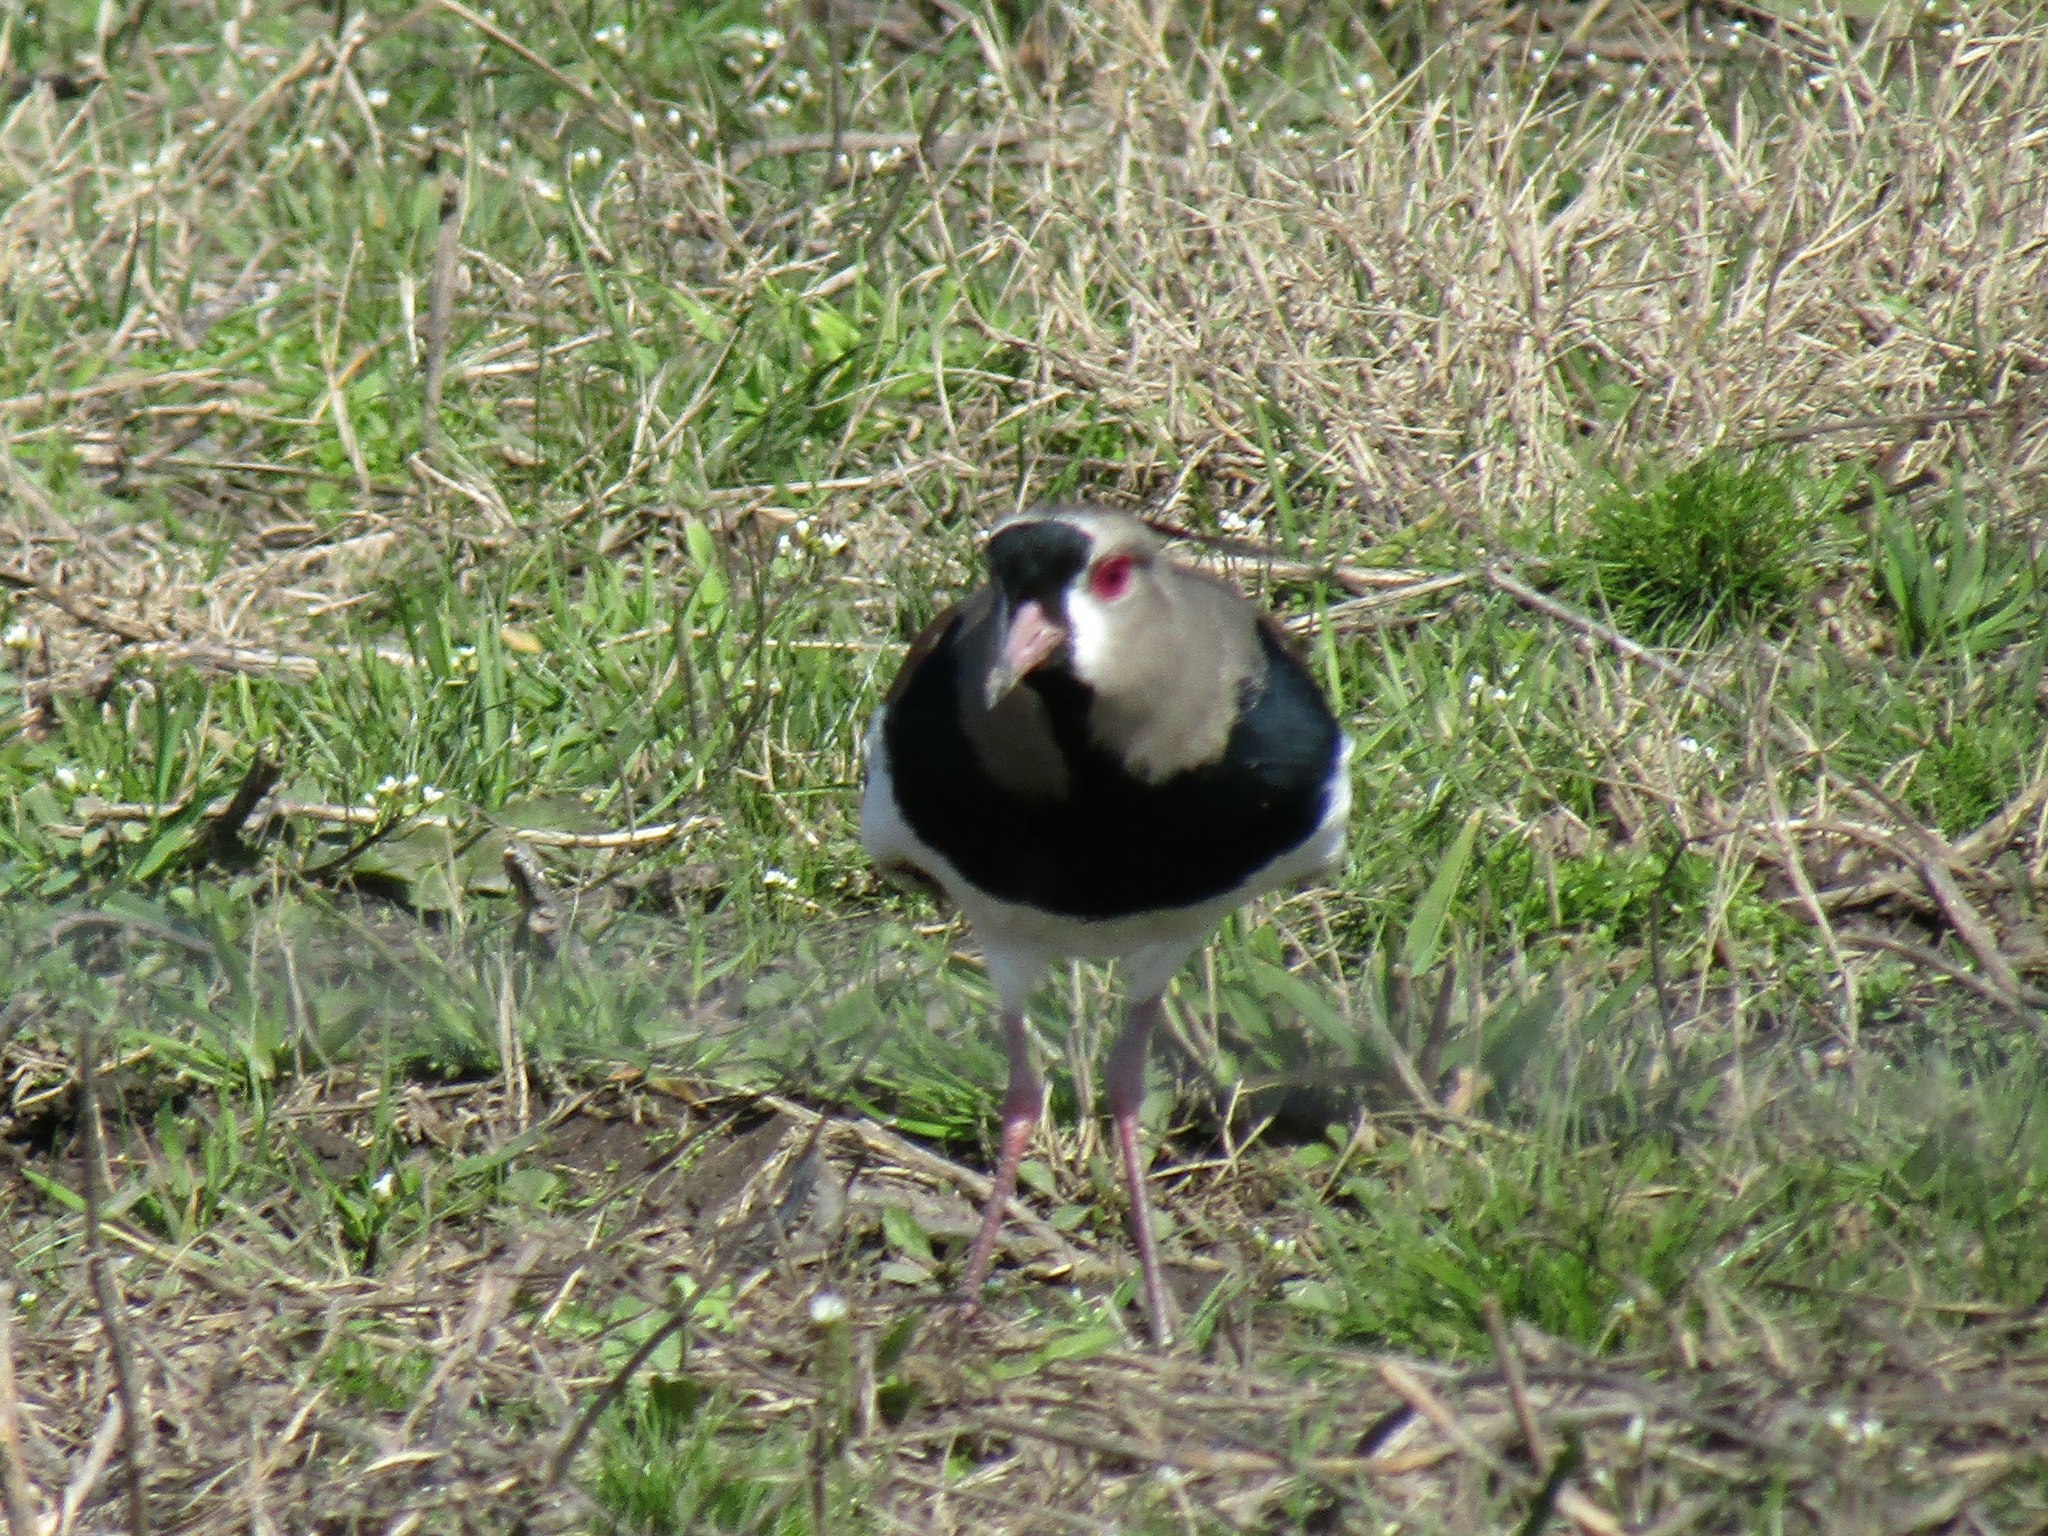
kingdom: Animalia
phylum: Chordata
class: Aves
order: Charadriiformes
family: Charadriidae
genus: Vanellus
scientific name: Vanellus chilensis
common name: Southern lapwing
